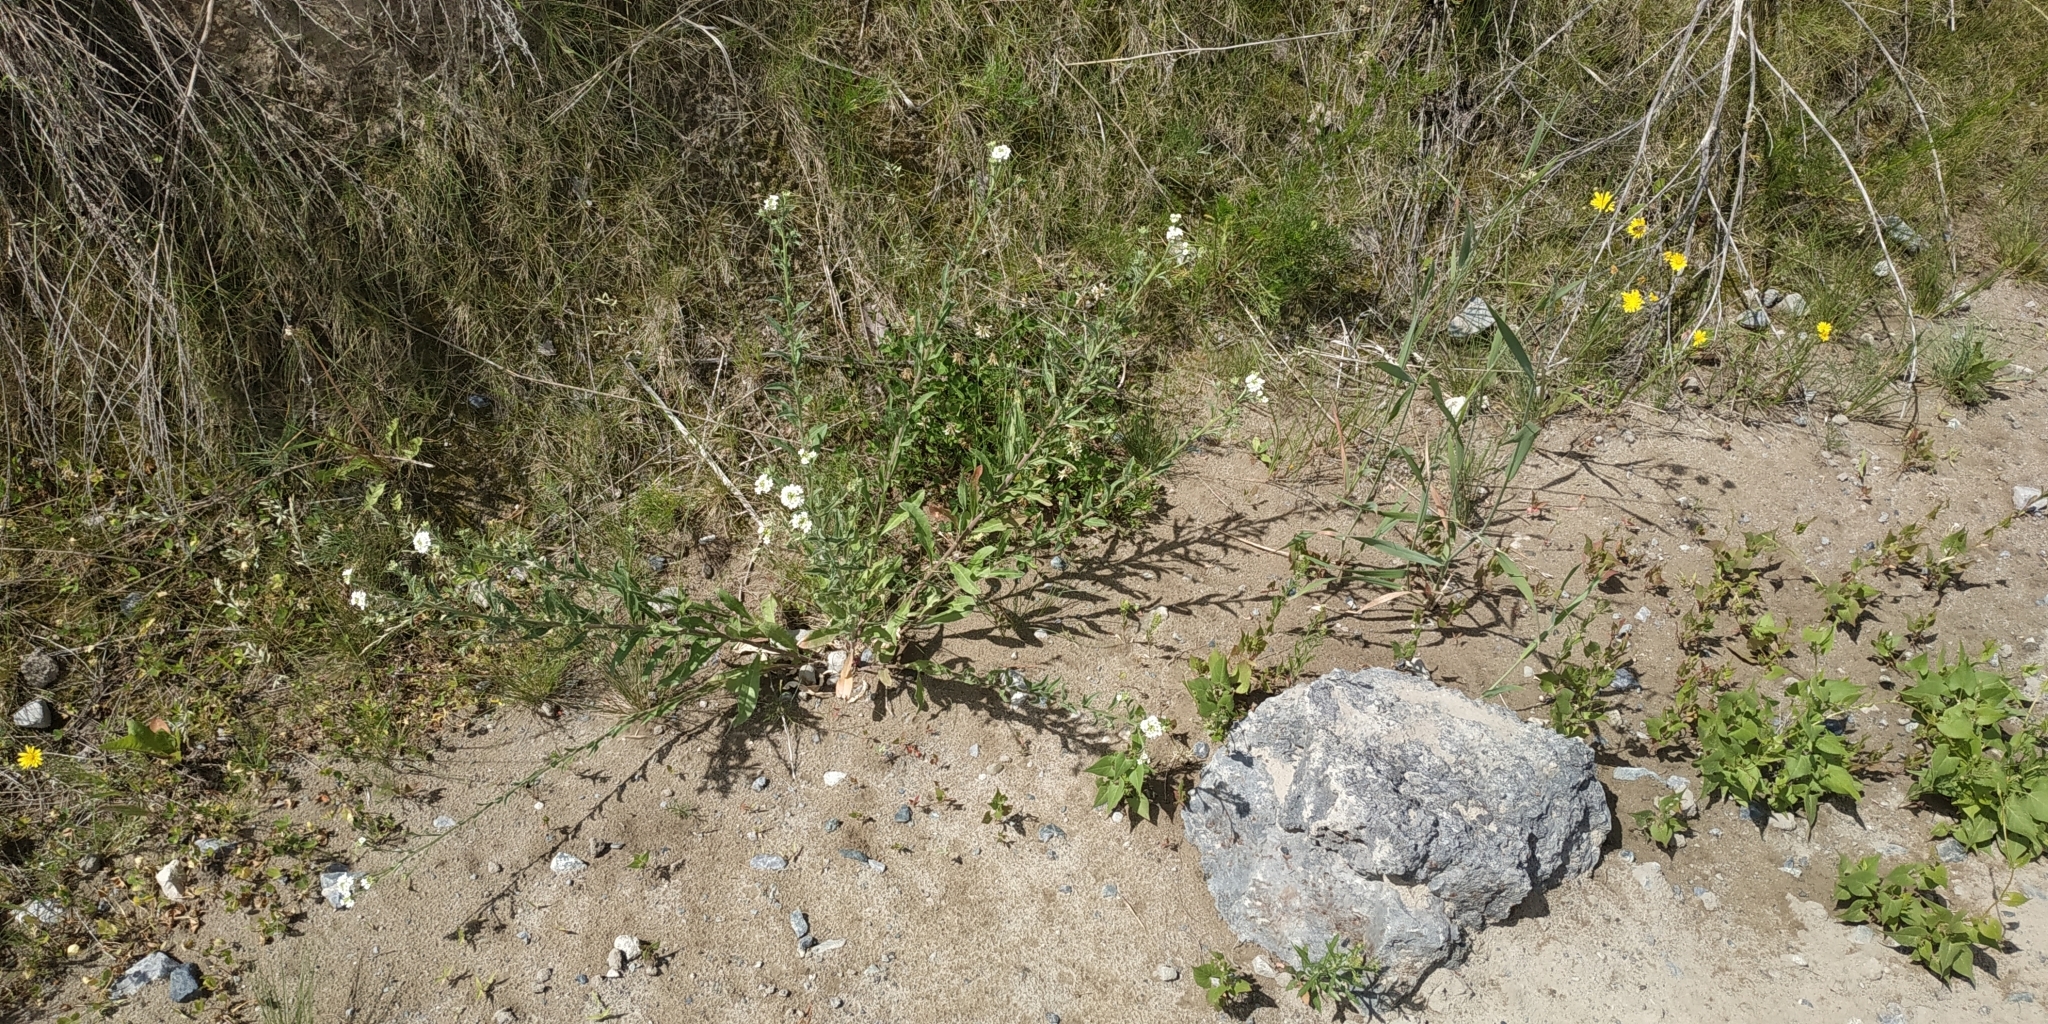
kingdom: Plantae
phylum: Tracheophyta
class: Magnoliopsida
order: Brassicales
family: Brassicaceae
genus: Berteroa
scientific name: Berteroa incana
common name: Hoary alison
